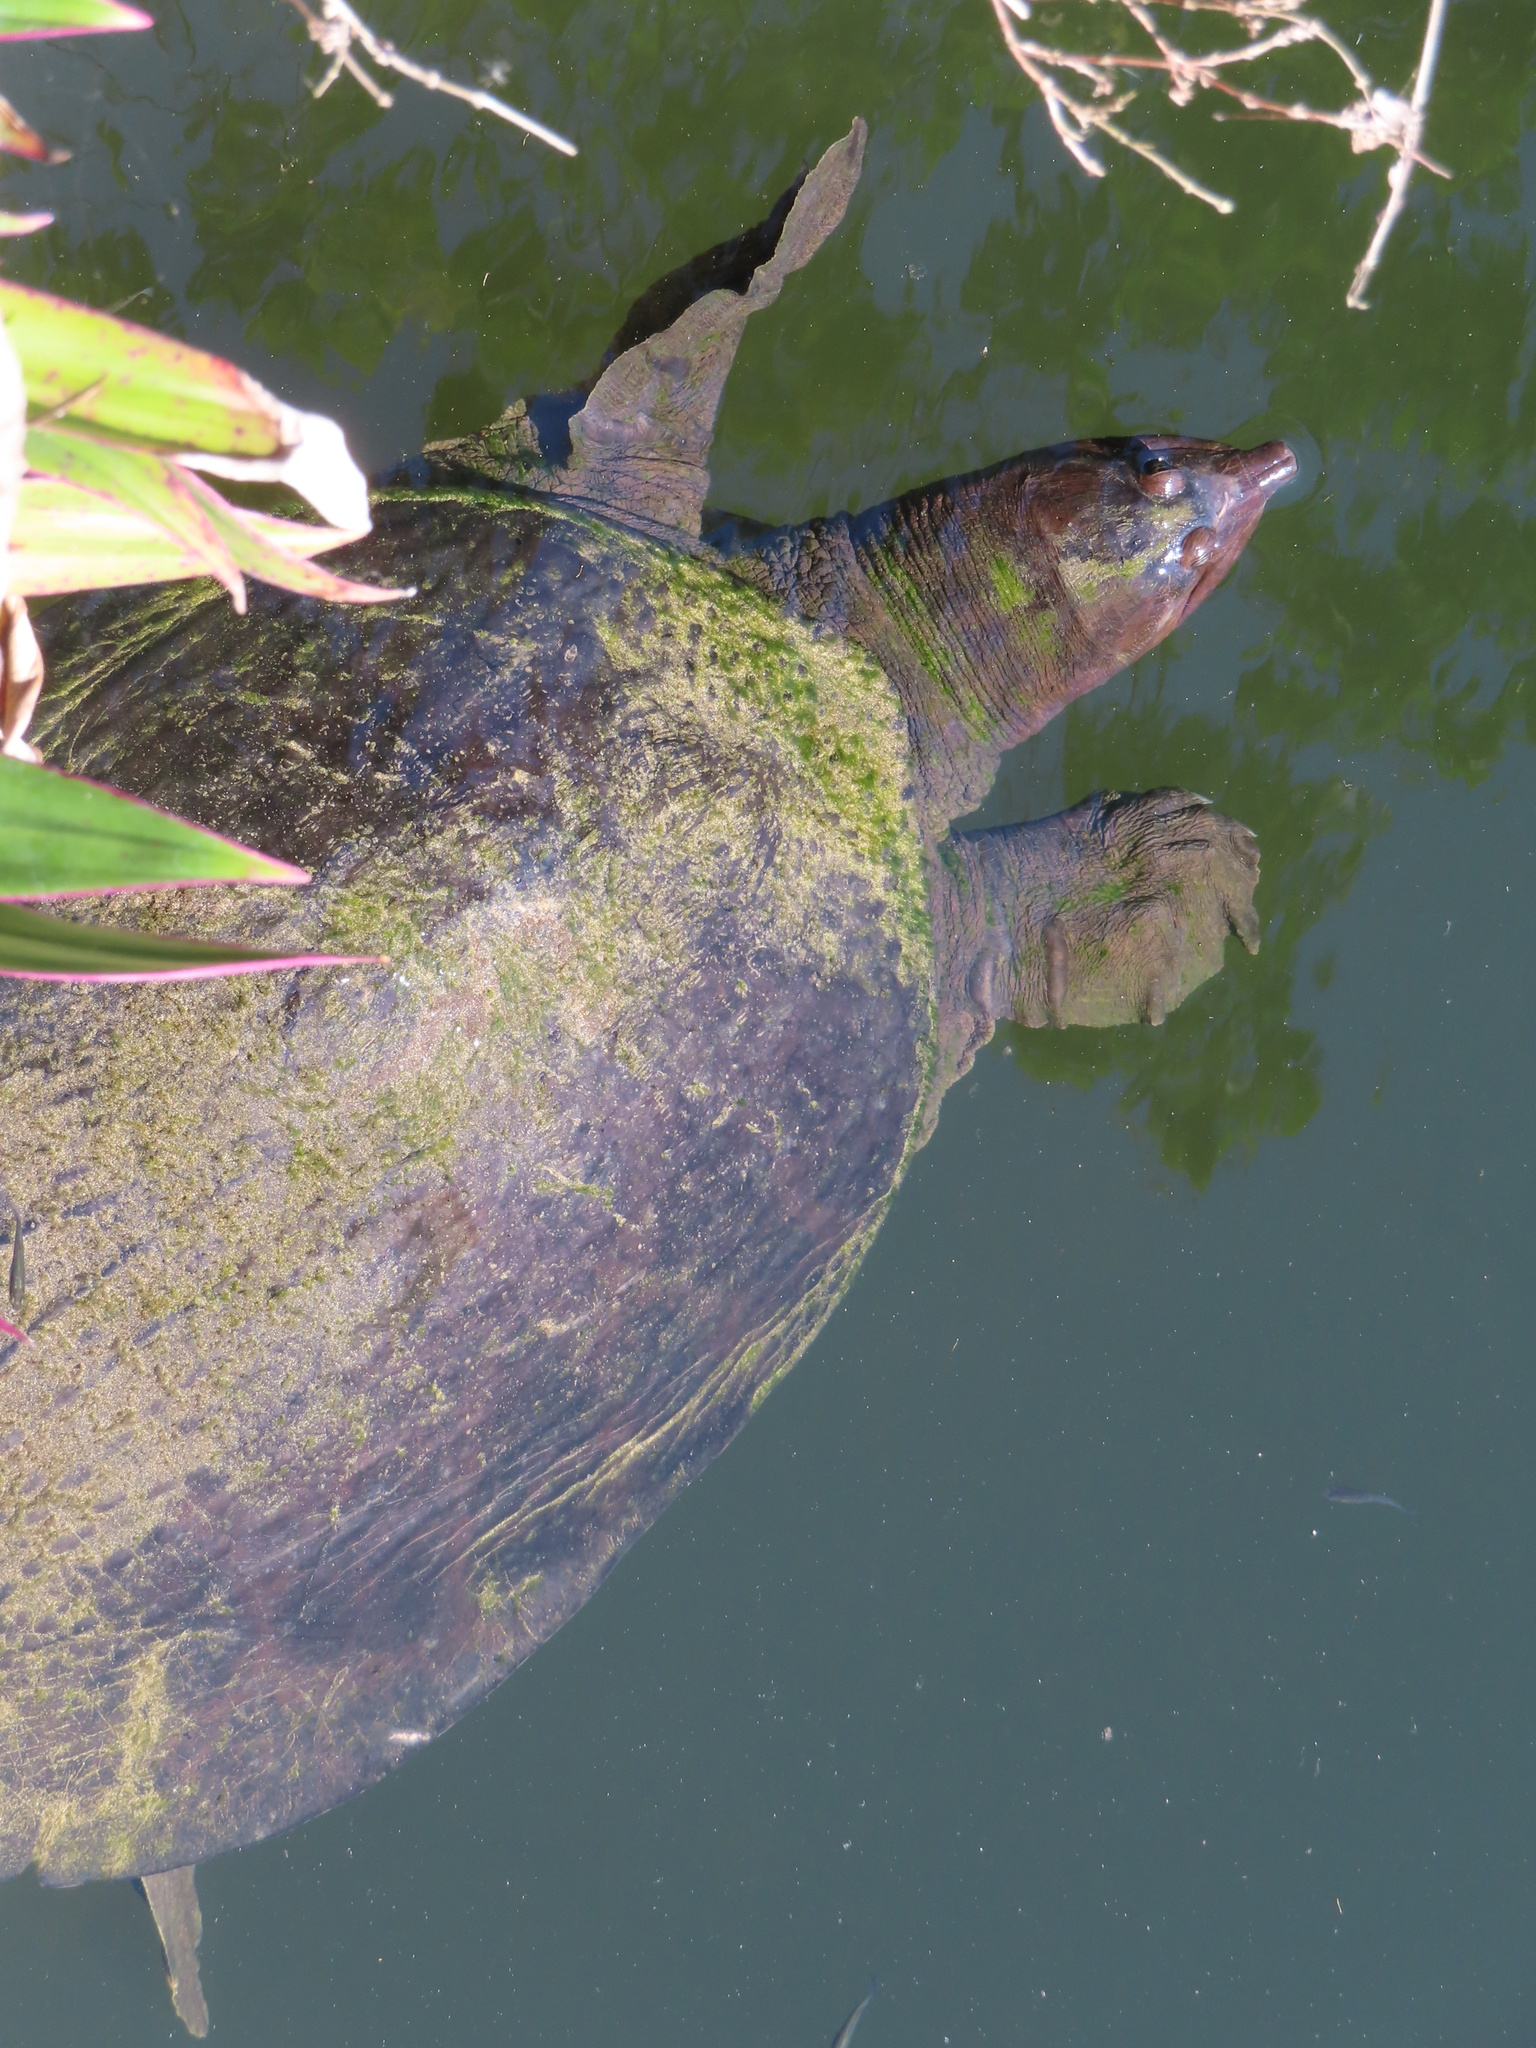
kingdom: Animalia
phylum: Chordata
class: Testudines
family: Trionychidae
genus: Apalone
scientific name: Apalone ferox
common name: Florida softshell turtle
